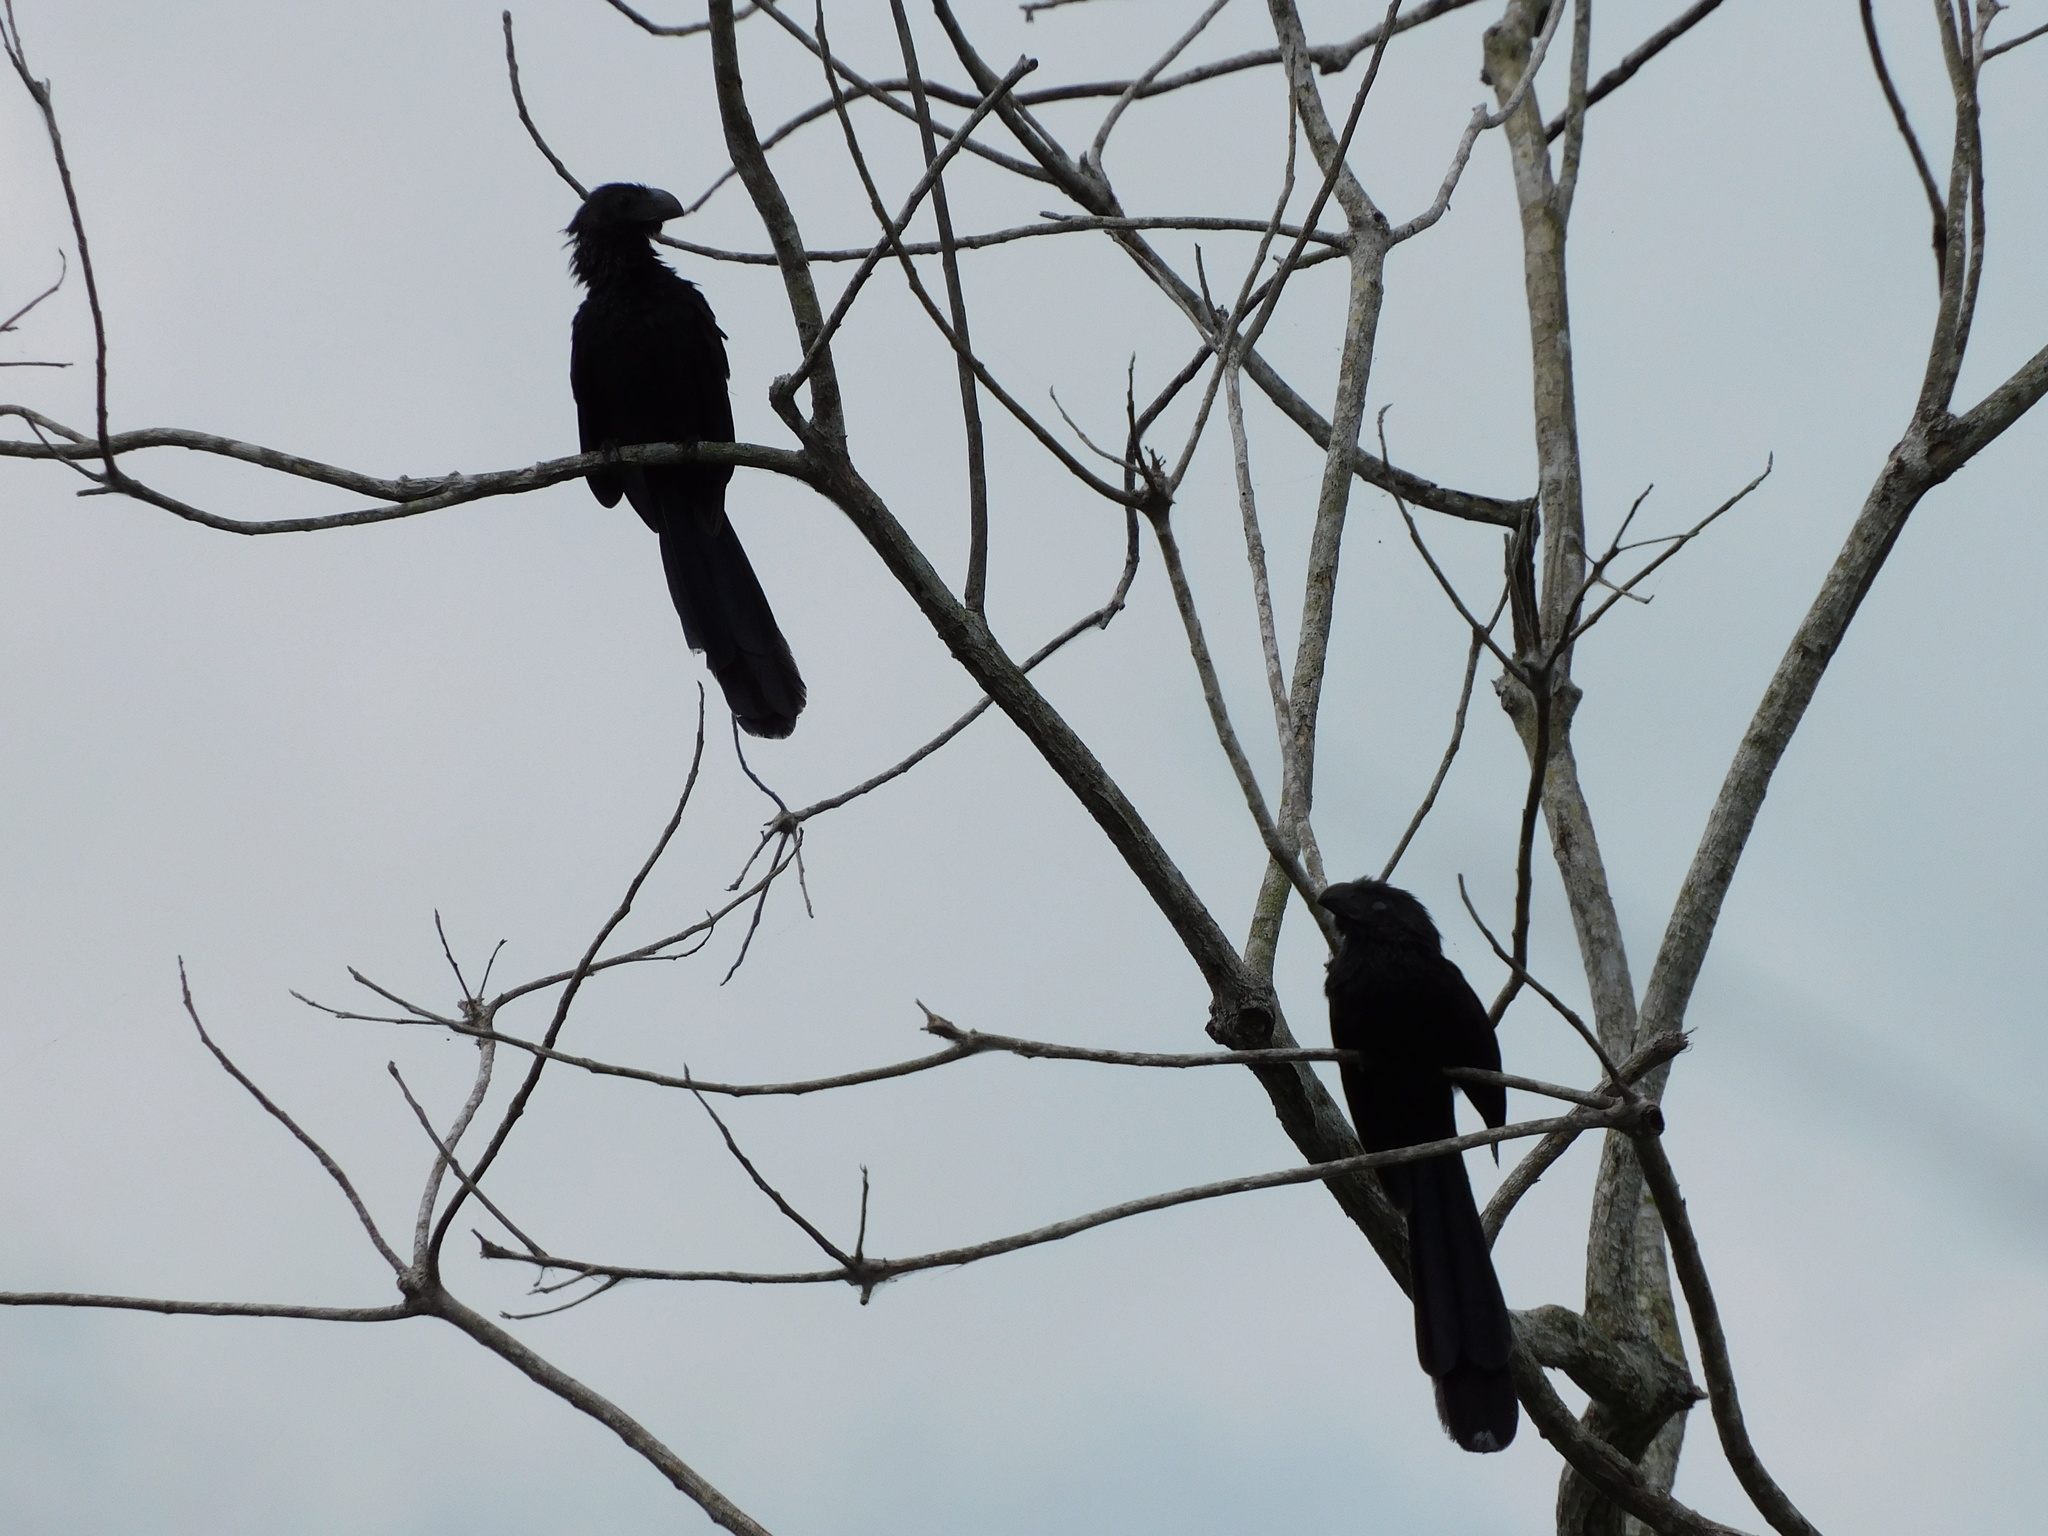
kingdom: Animalia
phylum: Chordata
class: Aves
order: Cuculiformes
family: Cuculidae
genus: Crotophaga
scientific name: Crotophaga sulcirostris
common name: Groove-billed ani
